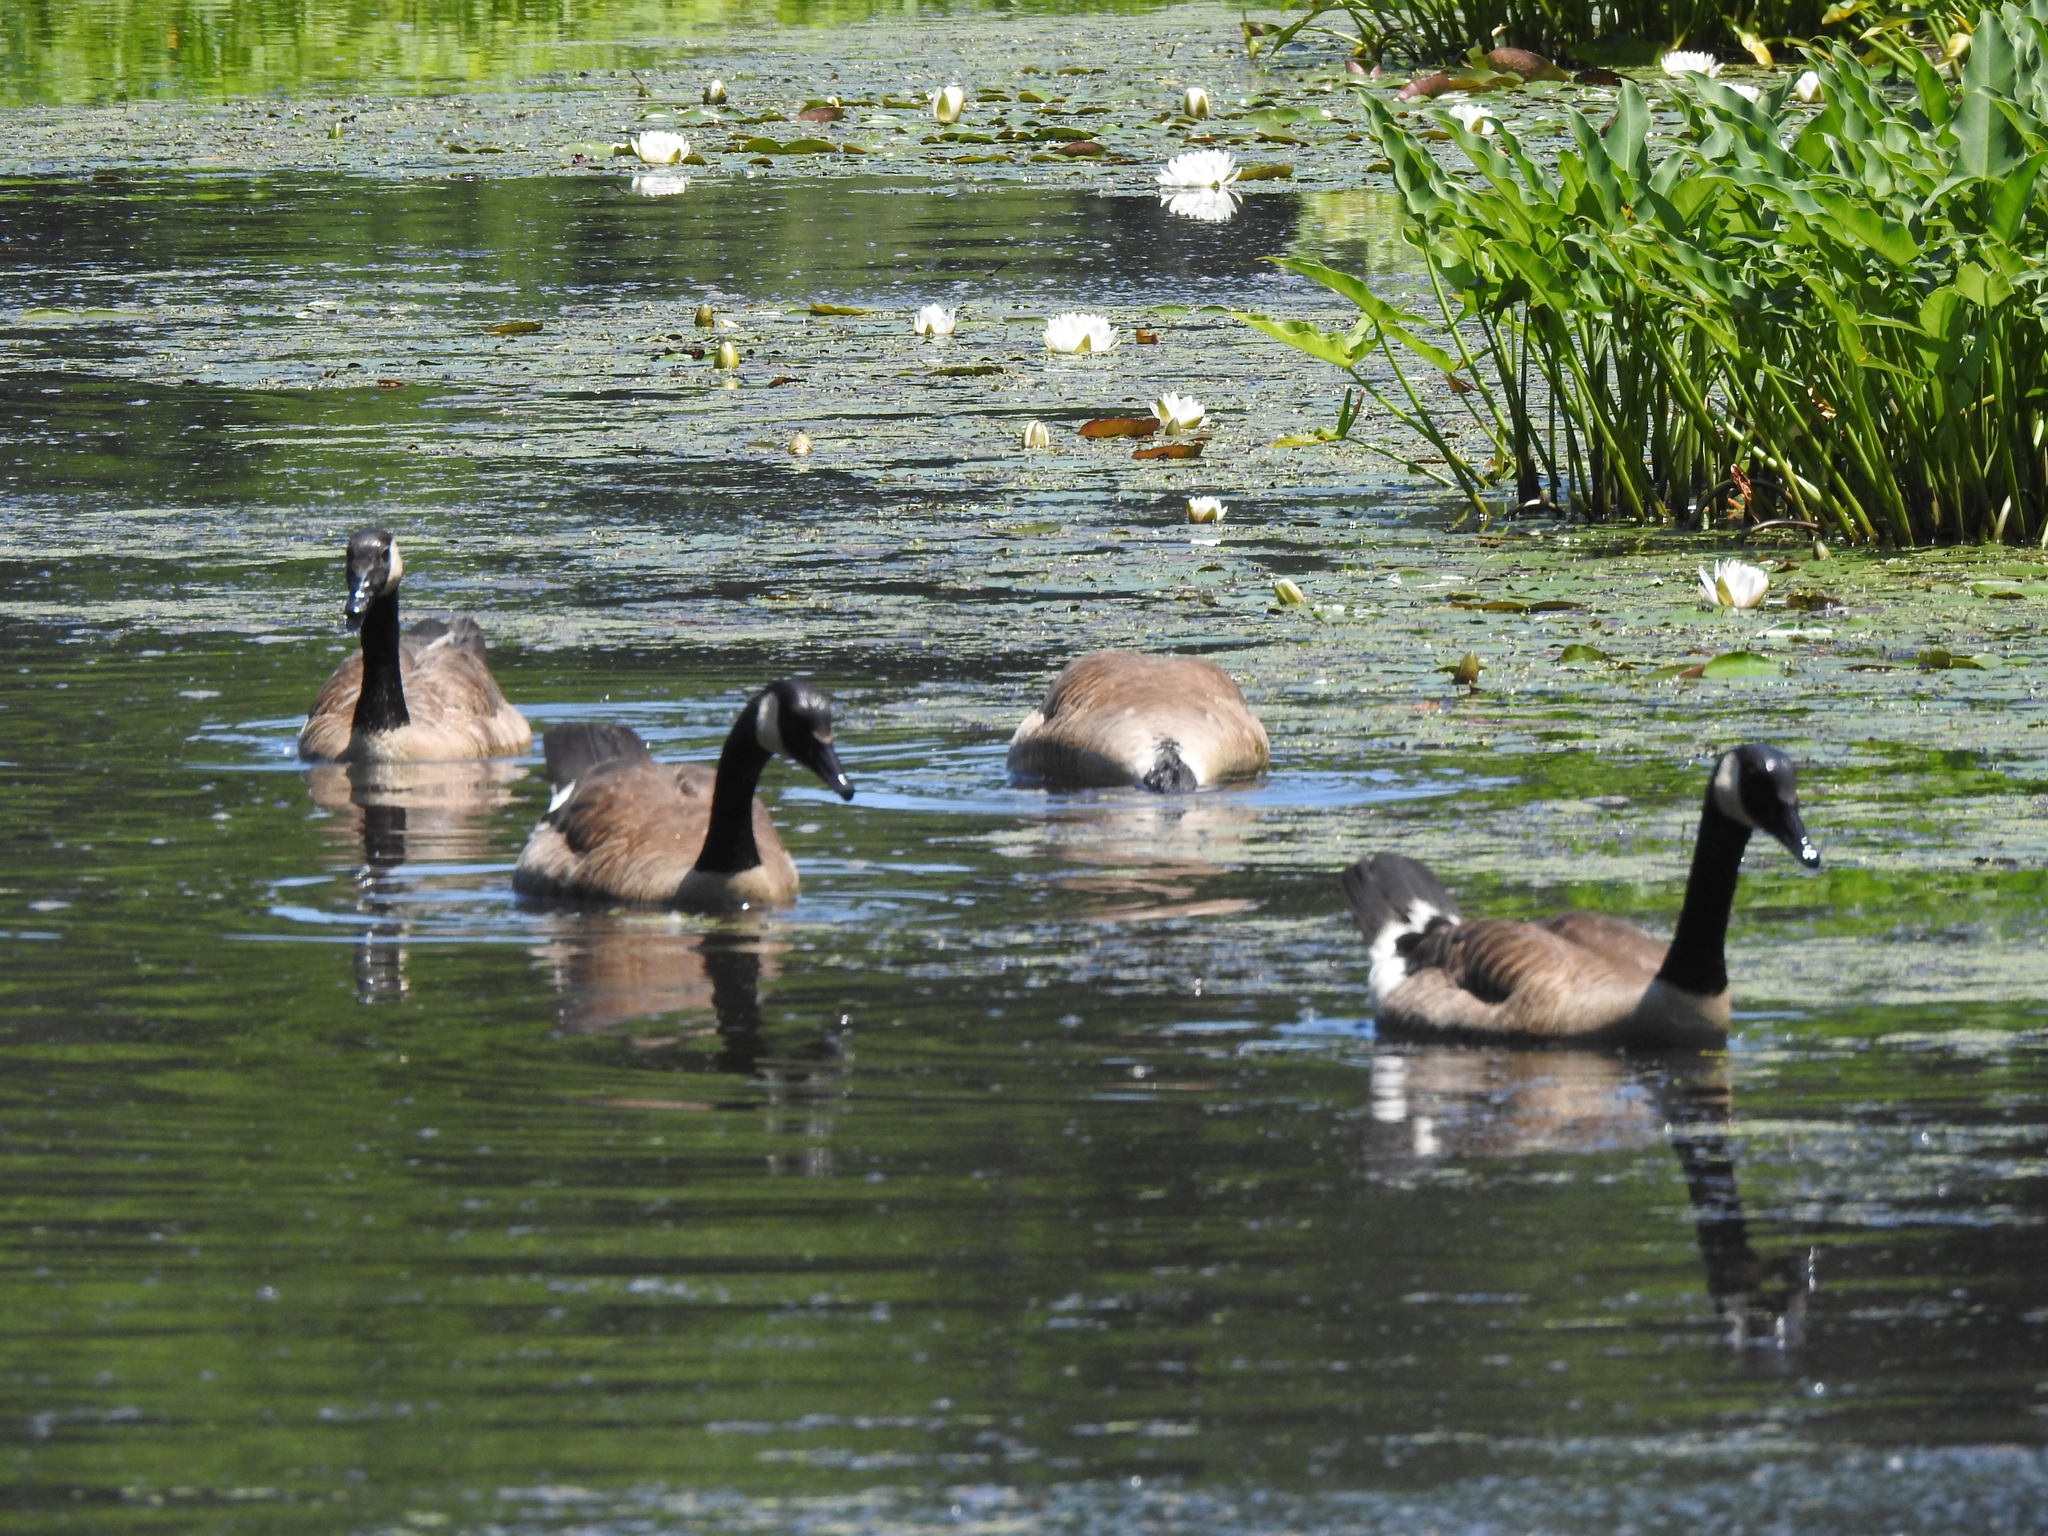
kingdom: Animalia
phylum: Chordata
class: Aves
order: Anseriformes
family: Anatidae
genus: Branta
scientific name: Branta canadensis
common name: Canada goose
